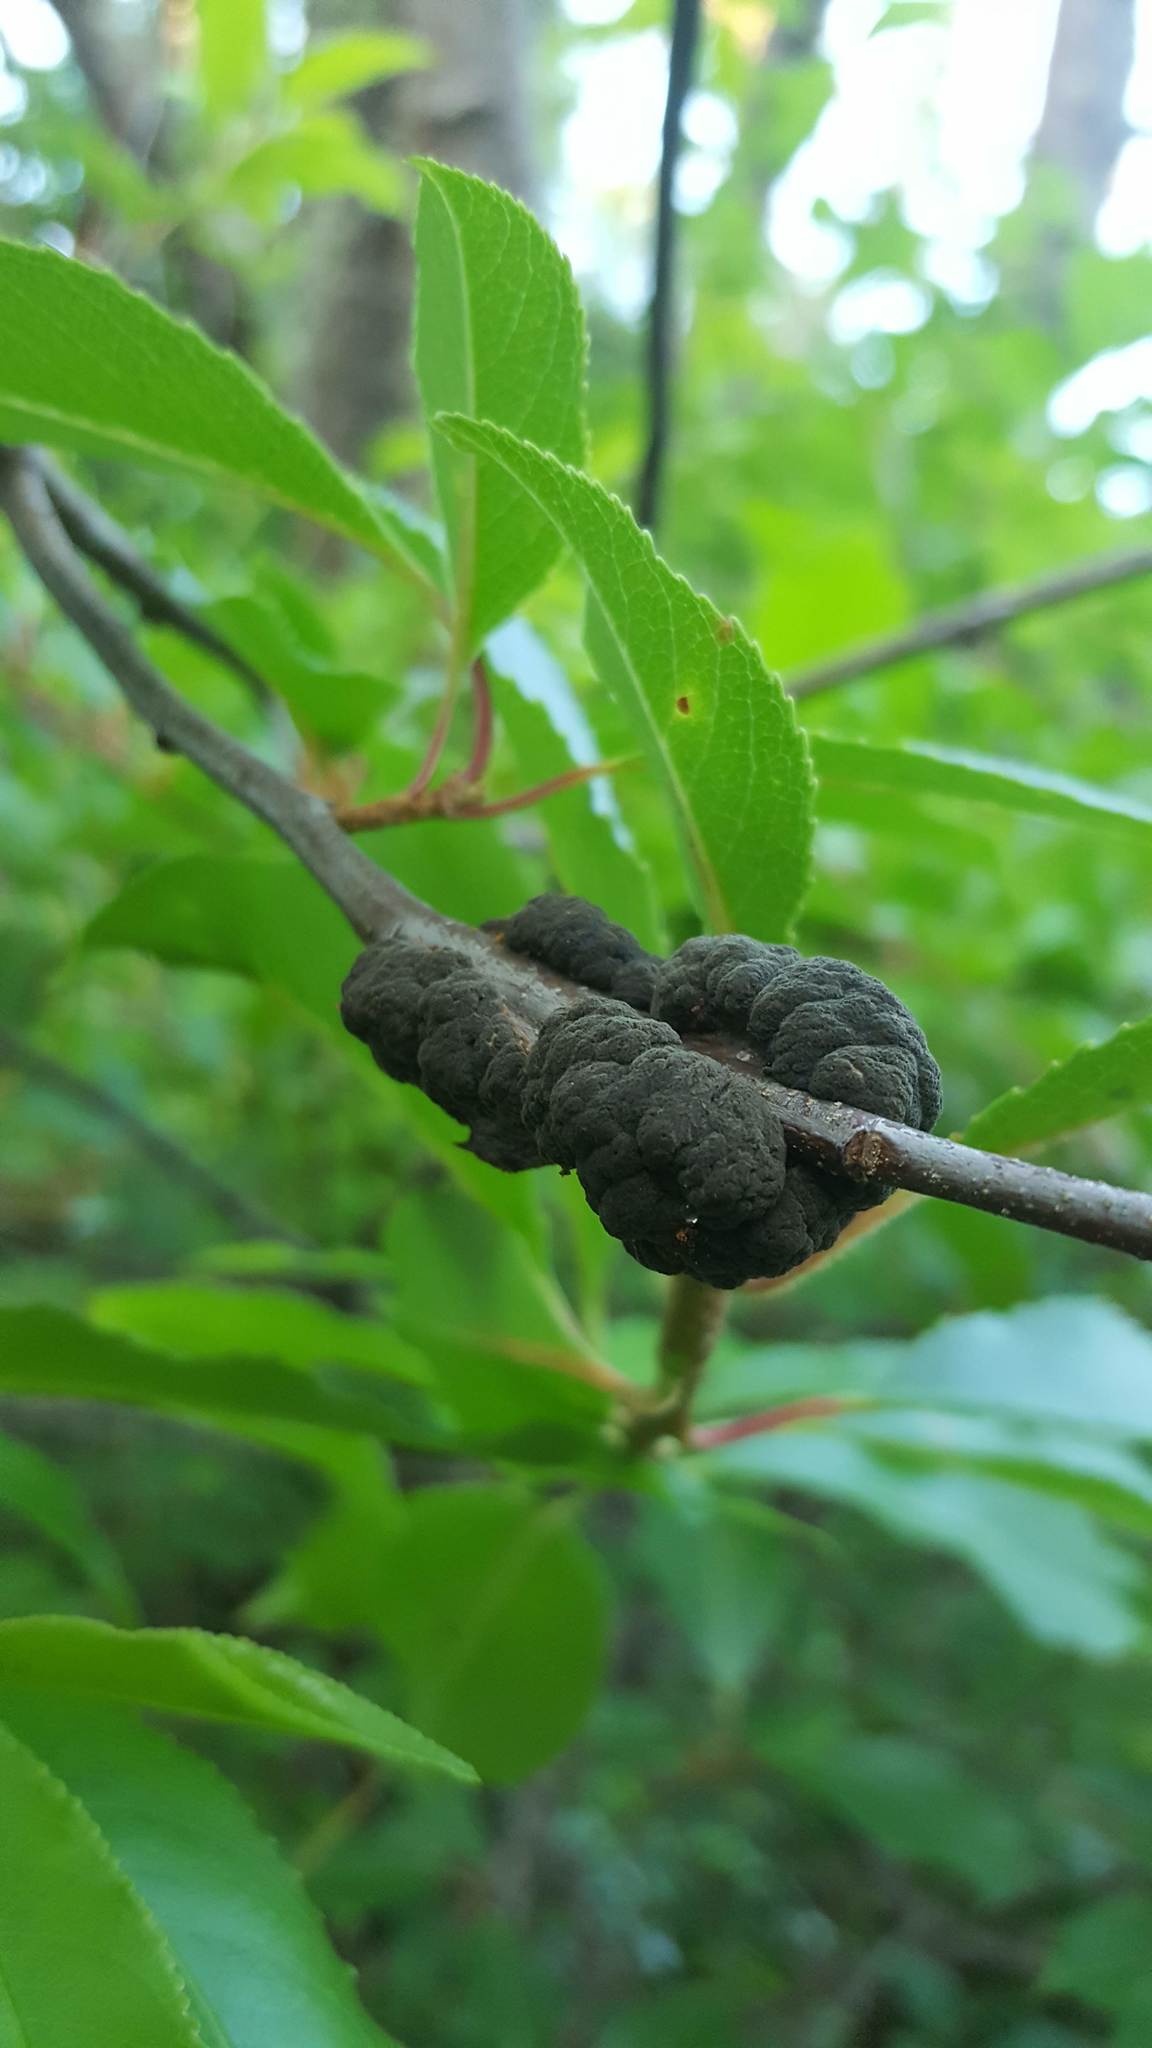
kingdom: Fungi
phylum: Ascomycota
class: Dothideomycetes
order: Venturiales
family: Venturiaceae
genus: Apiosporina
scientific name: Apiosporina morbosa
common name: Black knot
